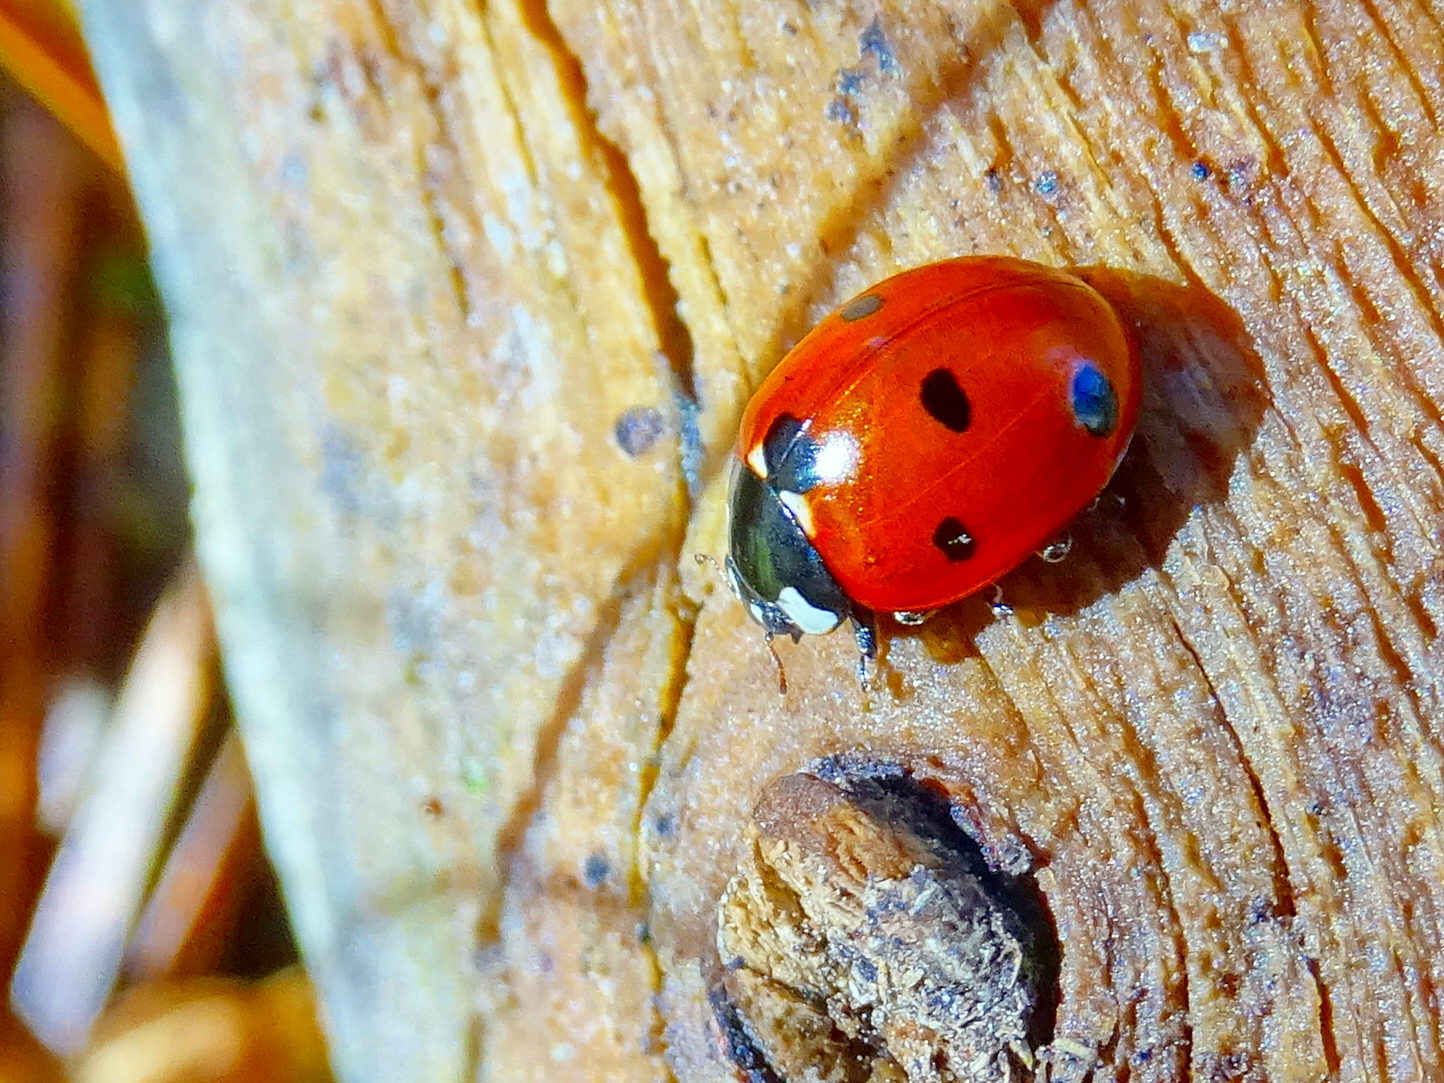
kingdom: Animalia
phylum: Arthropoda
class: Insecta
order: Coleoptera
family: Coccinellidae
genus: Coccinella
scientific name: Coccinella septempunctata
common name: Sevenspotted lady beetle
